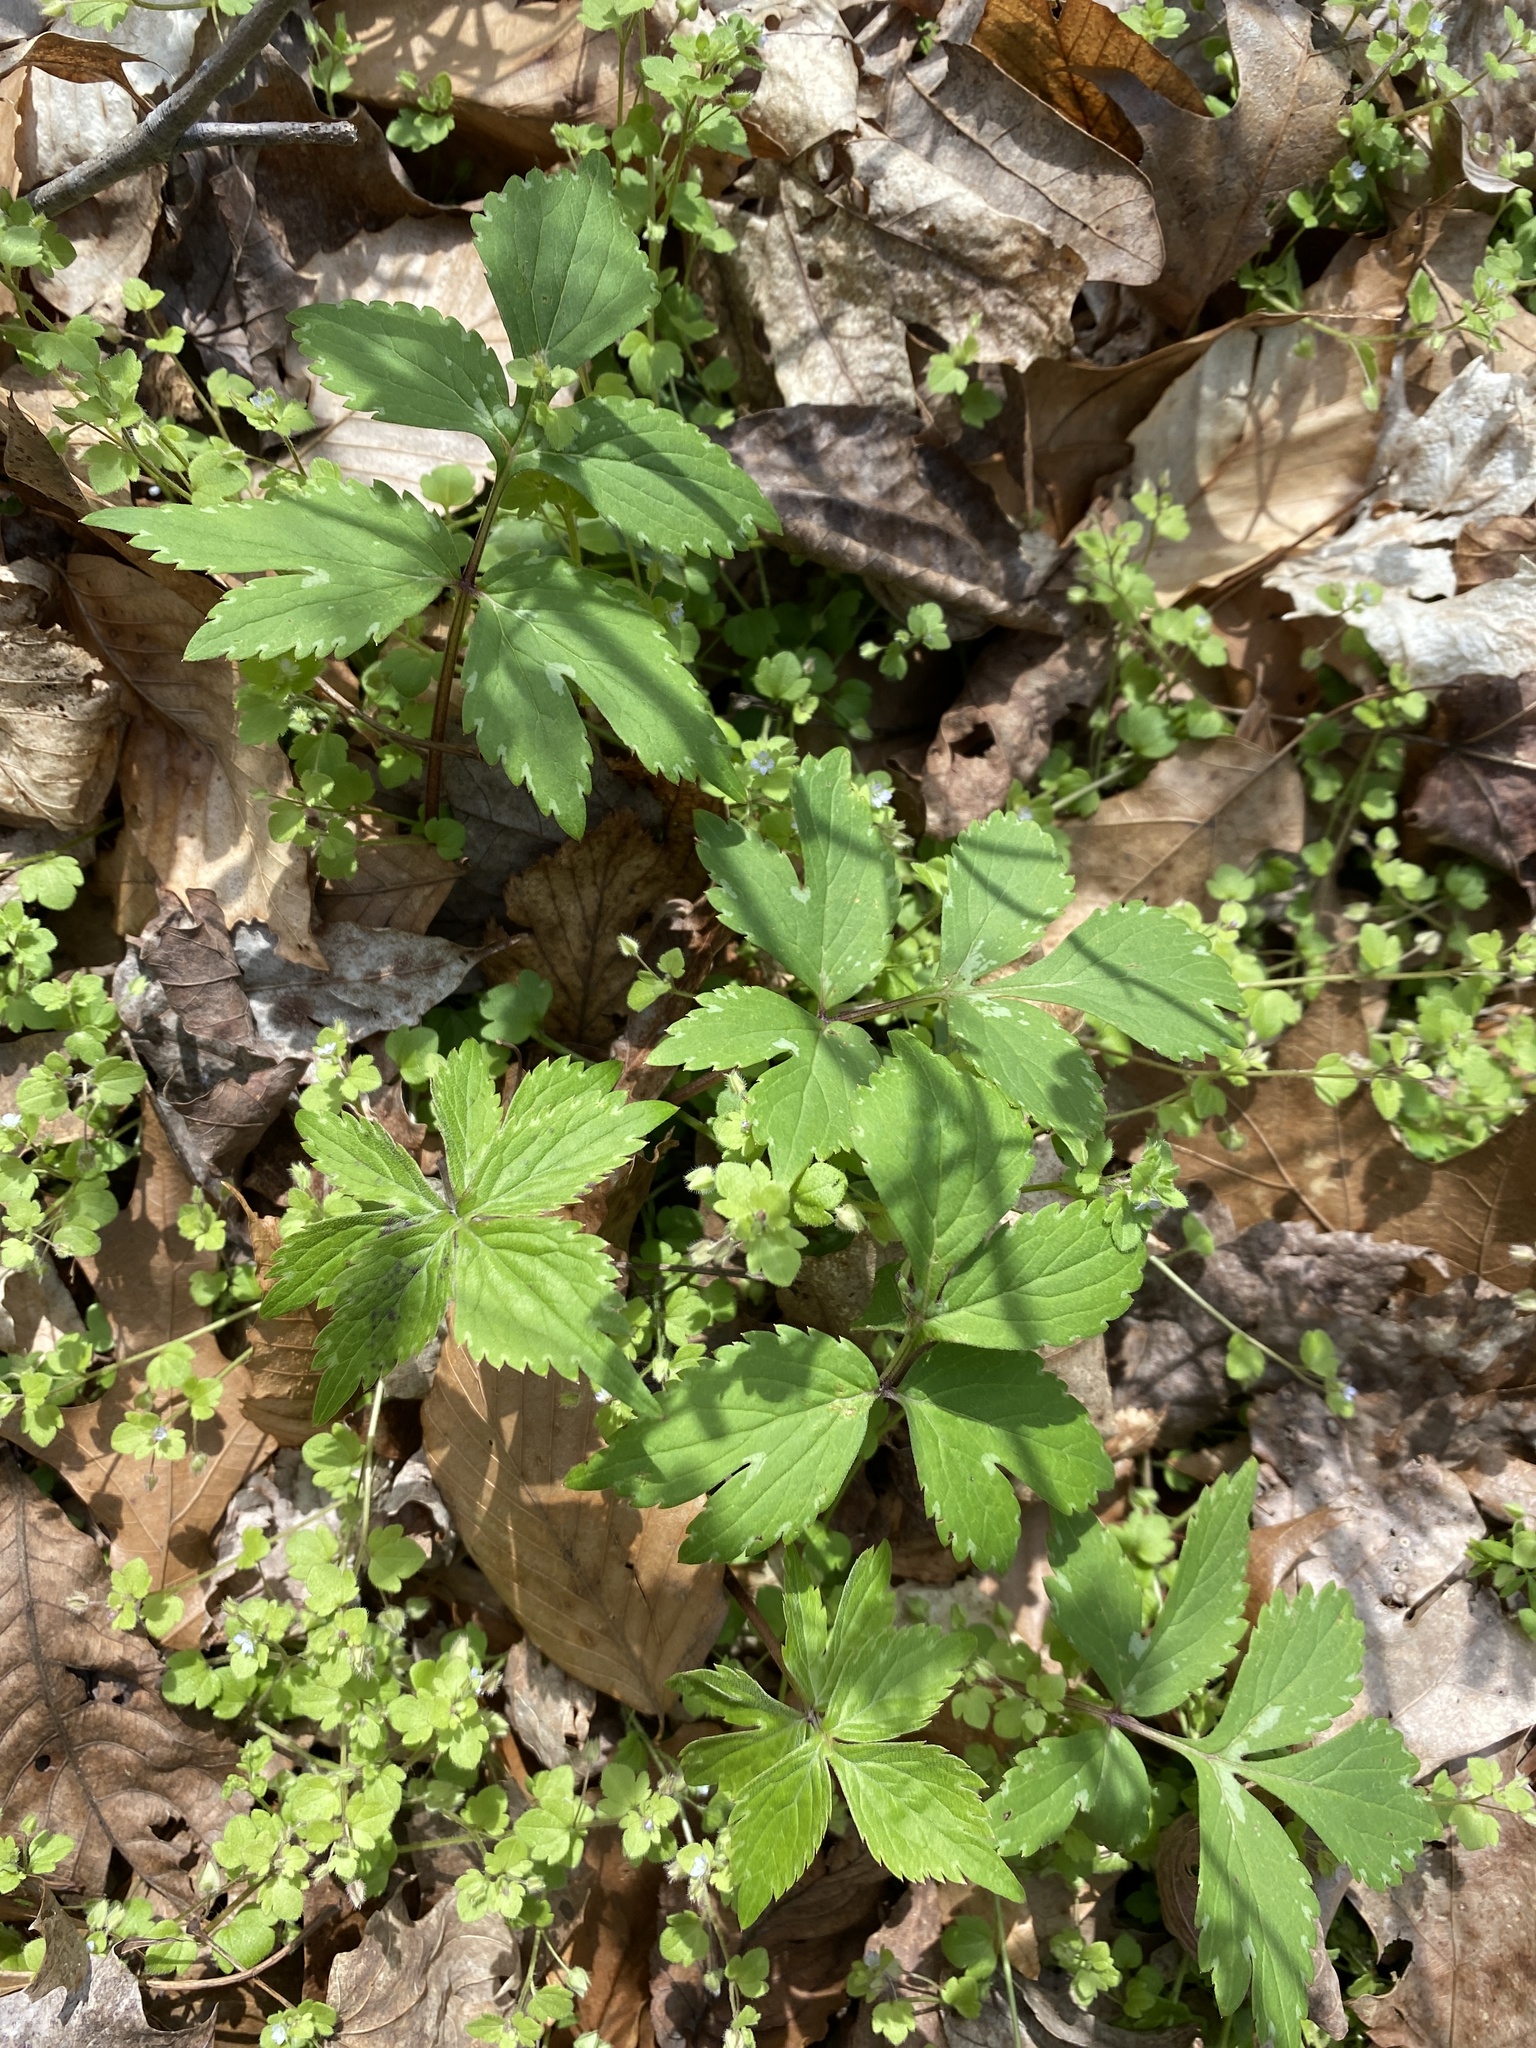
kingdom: Plantae
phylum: Tracheophyta
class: Magnoliopsida
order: Boraginales
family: Hydrophyllaceae
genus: Hydrophyllum
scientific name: Hydrophyllum virginianum
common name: Virginia waterleaf
